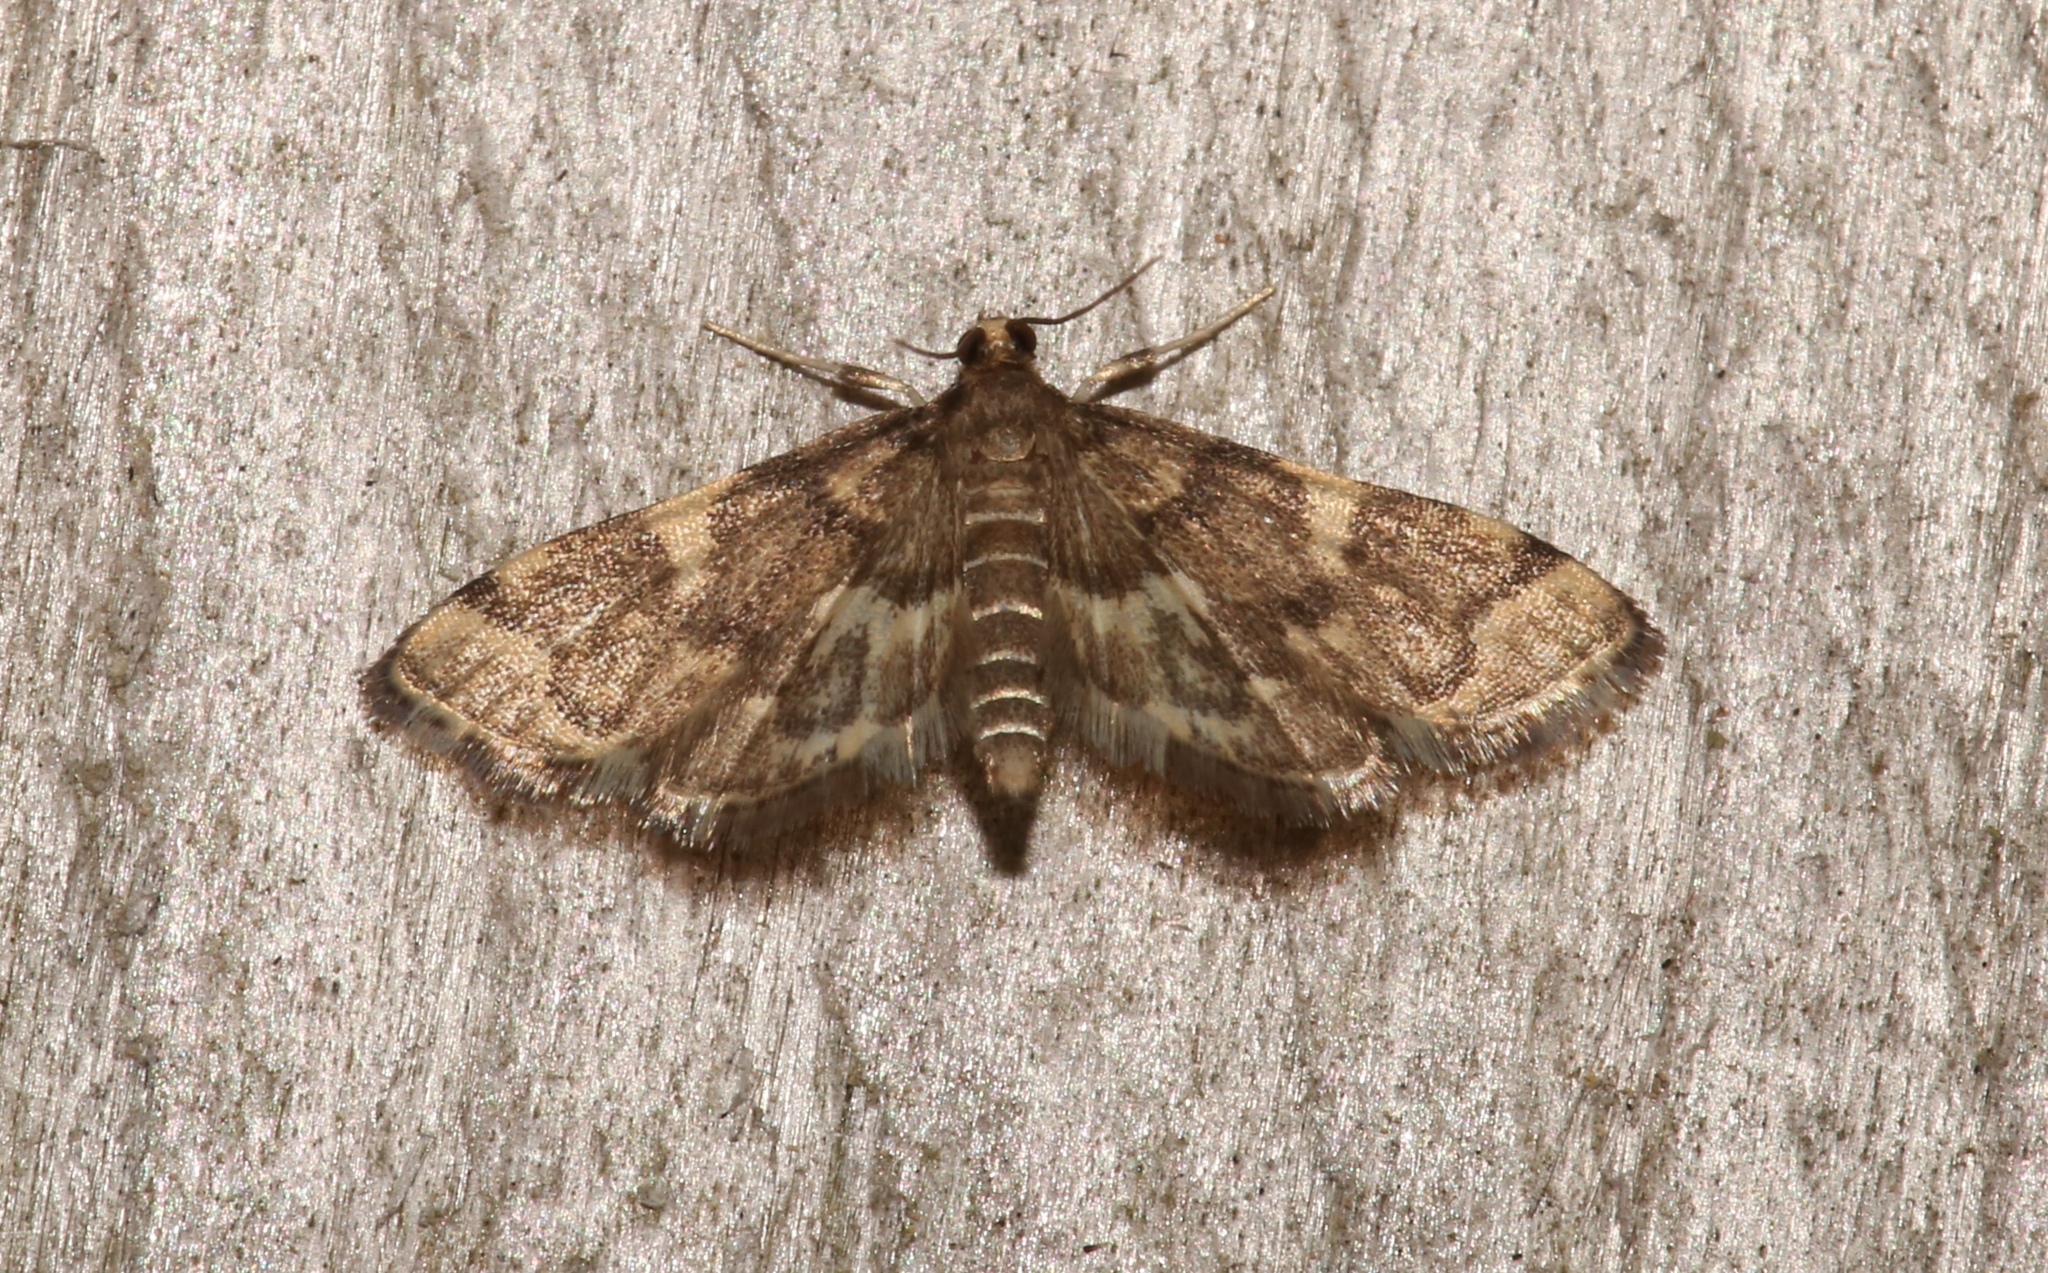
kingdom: Animalia
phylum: Arthropoda
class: Insecta
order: Lepidoptera
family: Crambidae
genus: Anageshna
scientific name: Anageshna primordialis
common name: Yellow-spotted webworm moth
